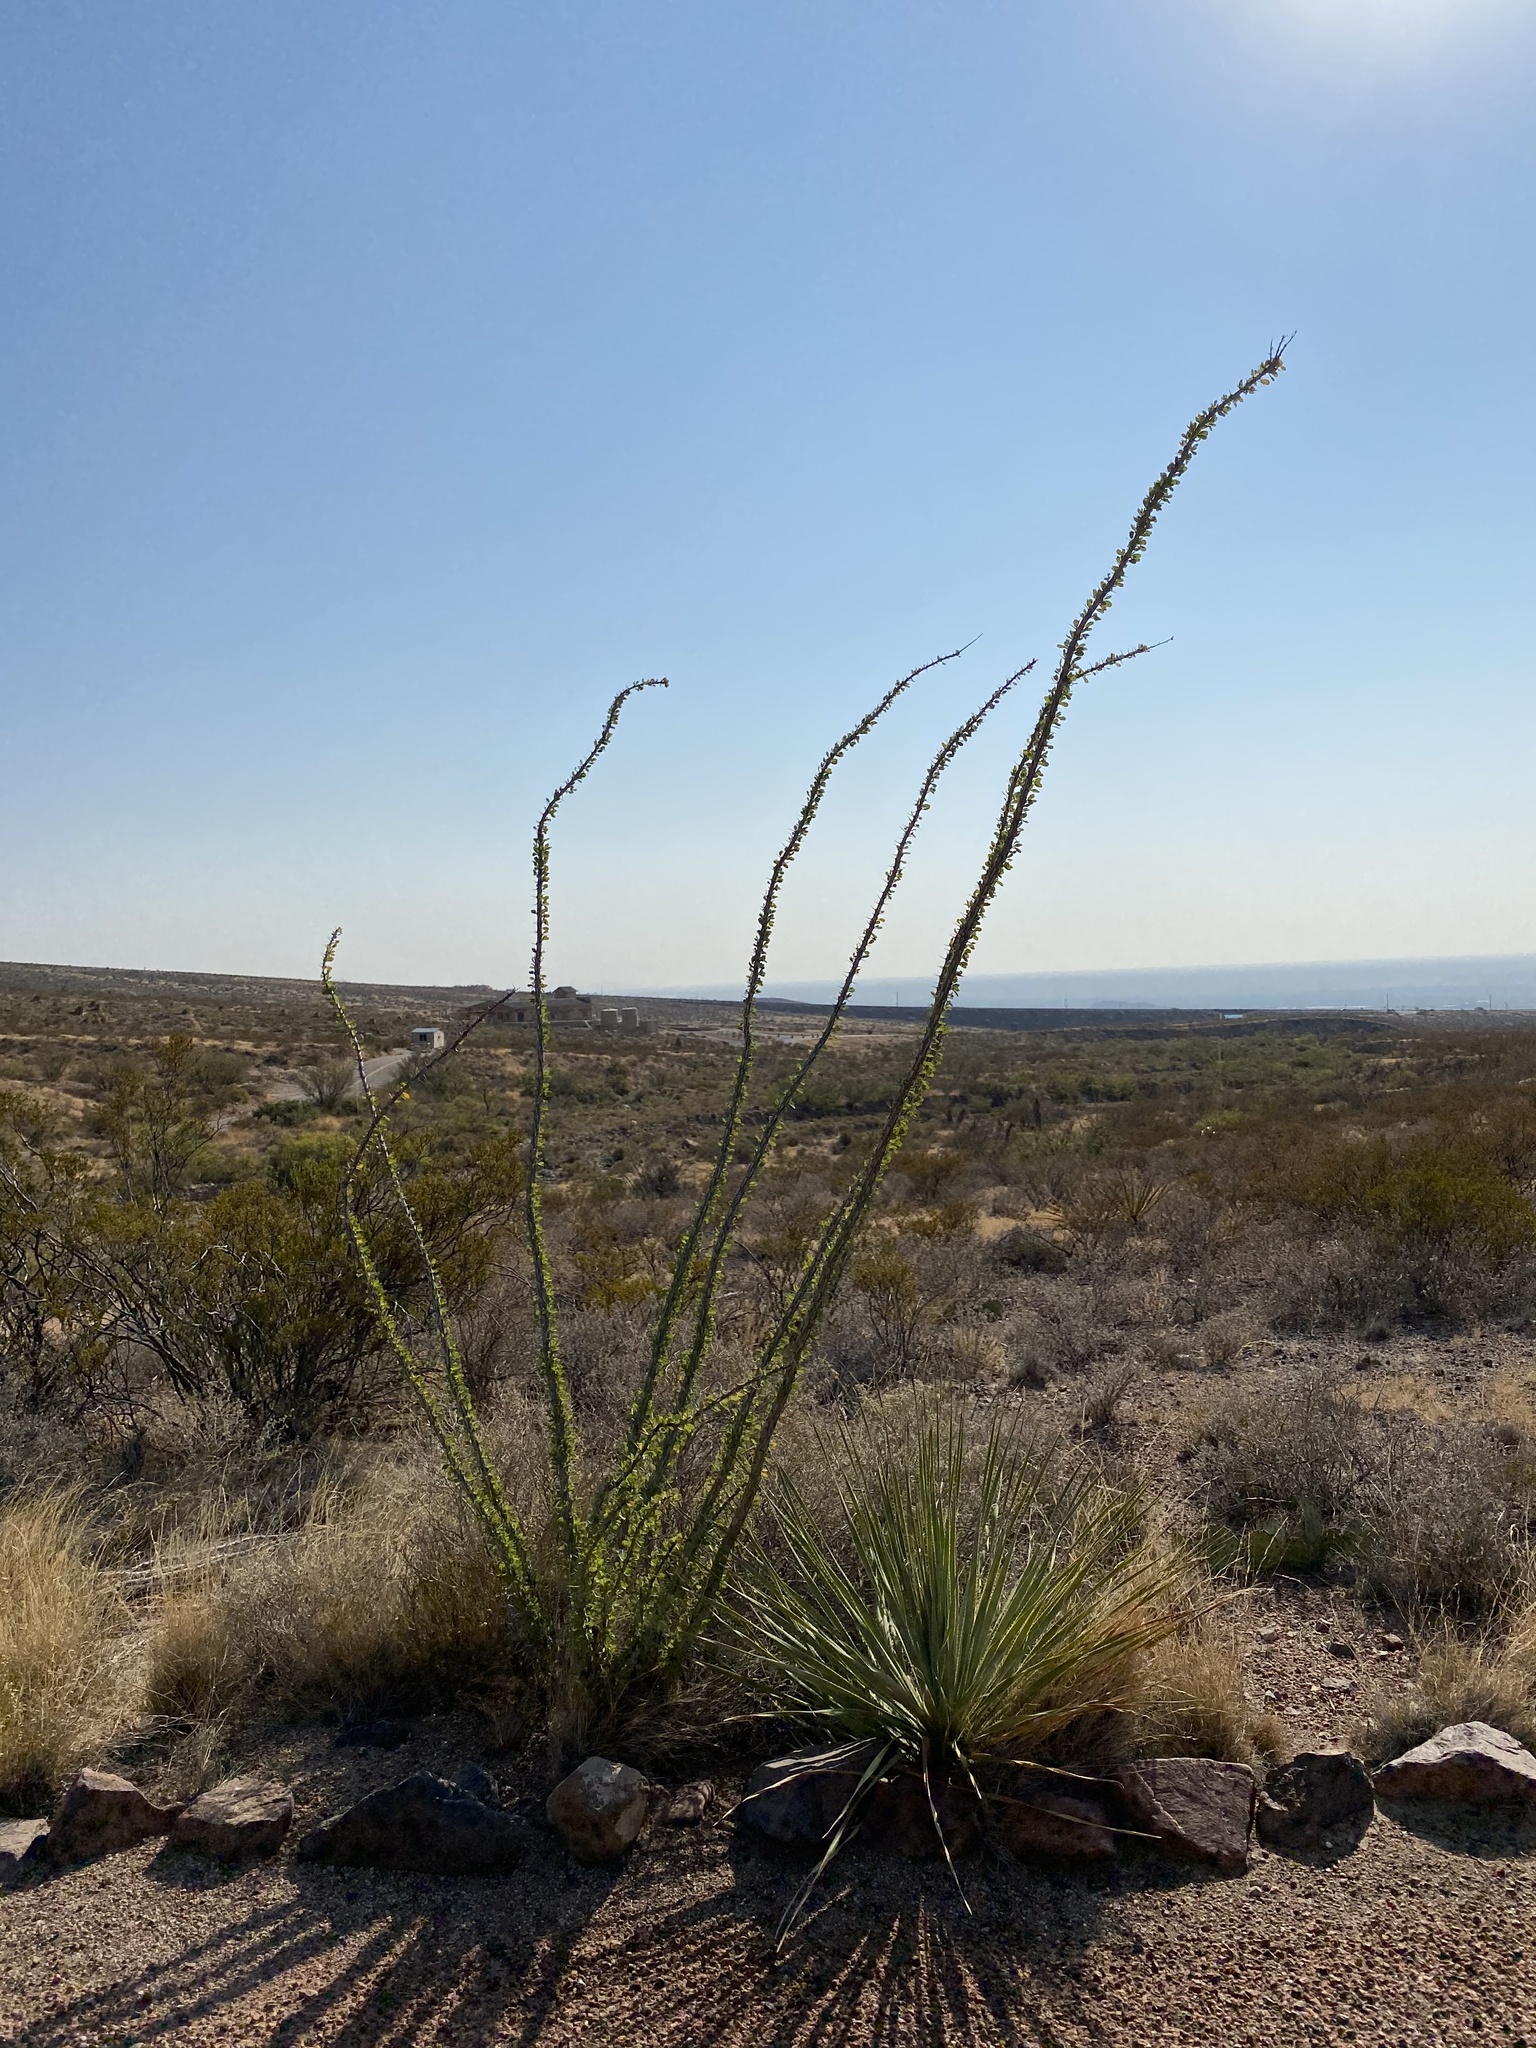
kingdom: Plantae
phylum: Tracheophyta
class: Magnoliopsida
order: Ericales
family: Fouquieriaceae
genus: Fouquieria
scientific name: Fouquieria splendens
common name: Vine-cactus
